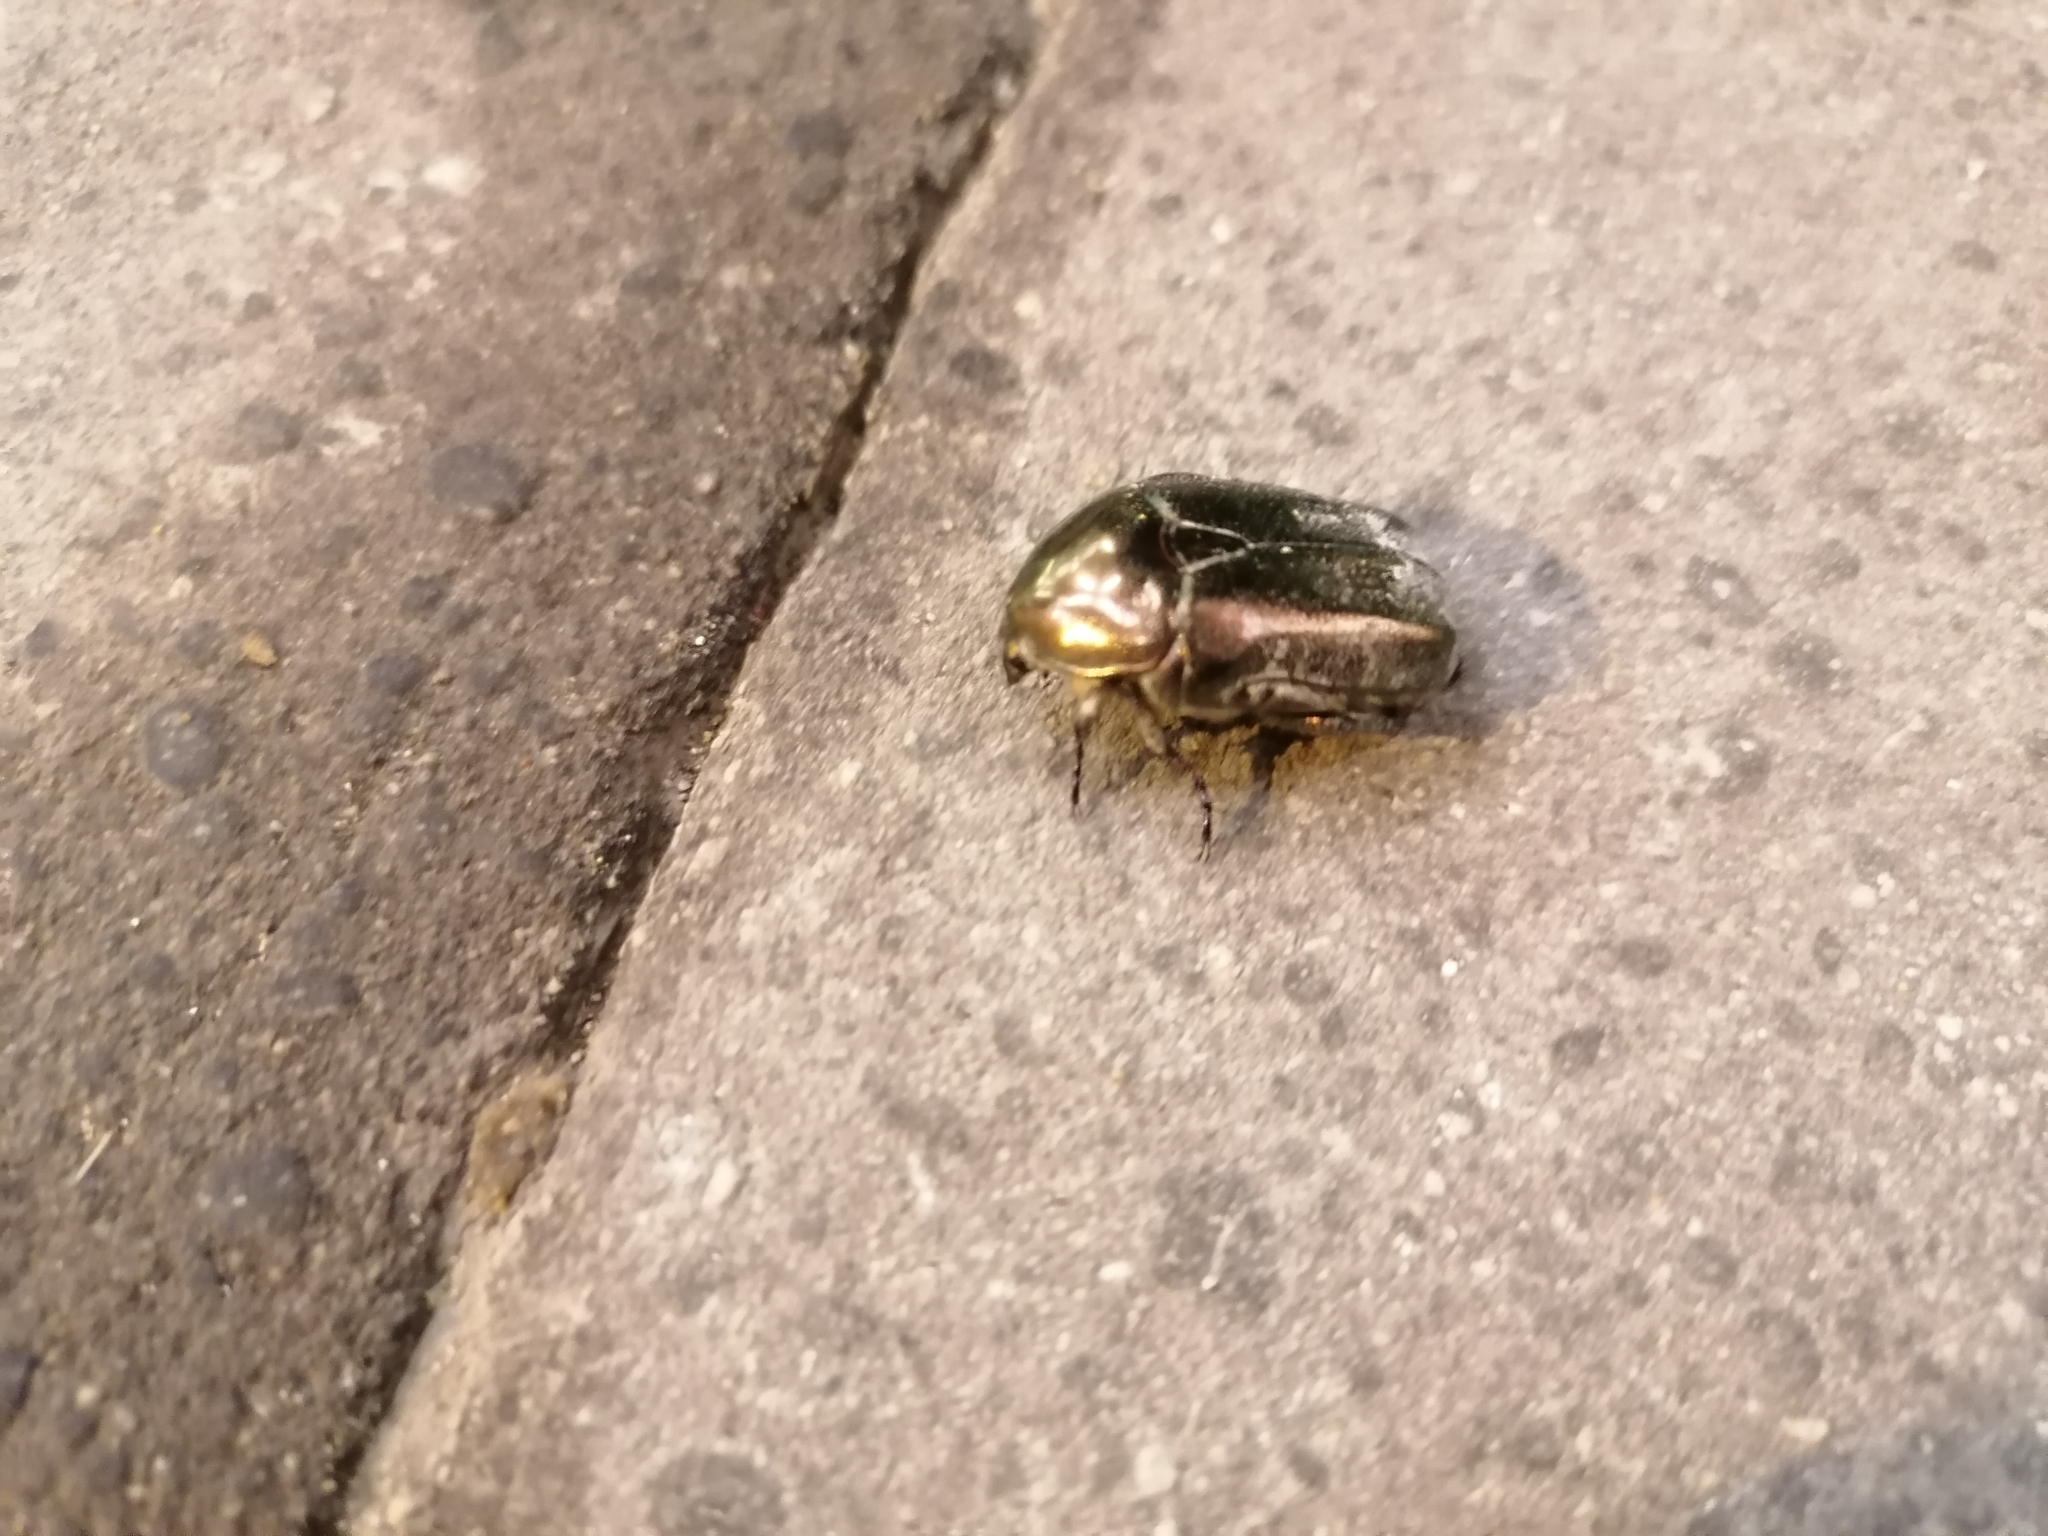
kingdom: Animalia
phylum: Arthropoda
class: Insecta
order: Coleoptera
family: Scarabaeidae
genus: Protaetia
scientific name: Protaetia cuprea
